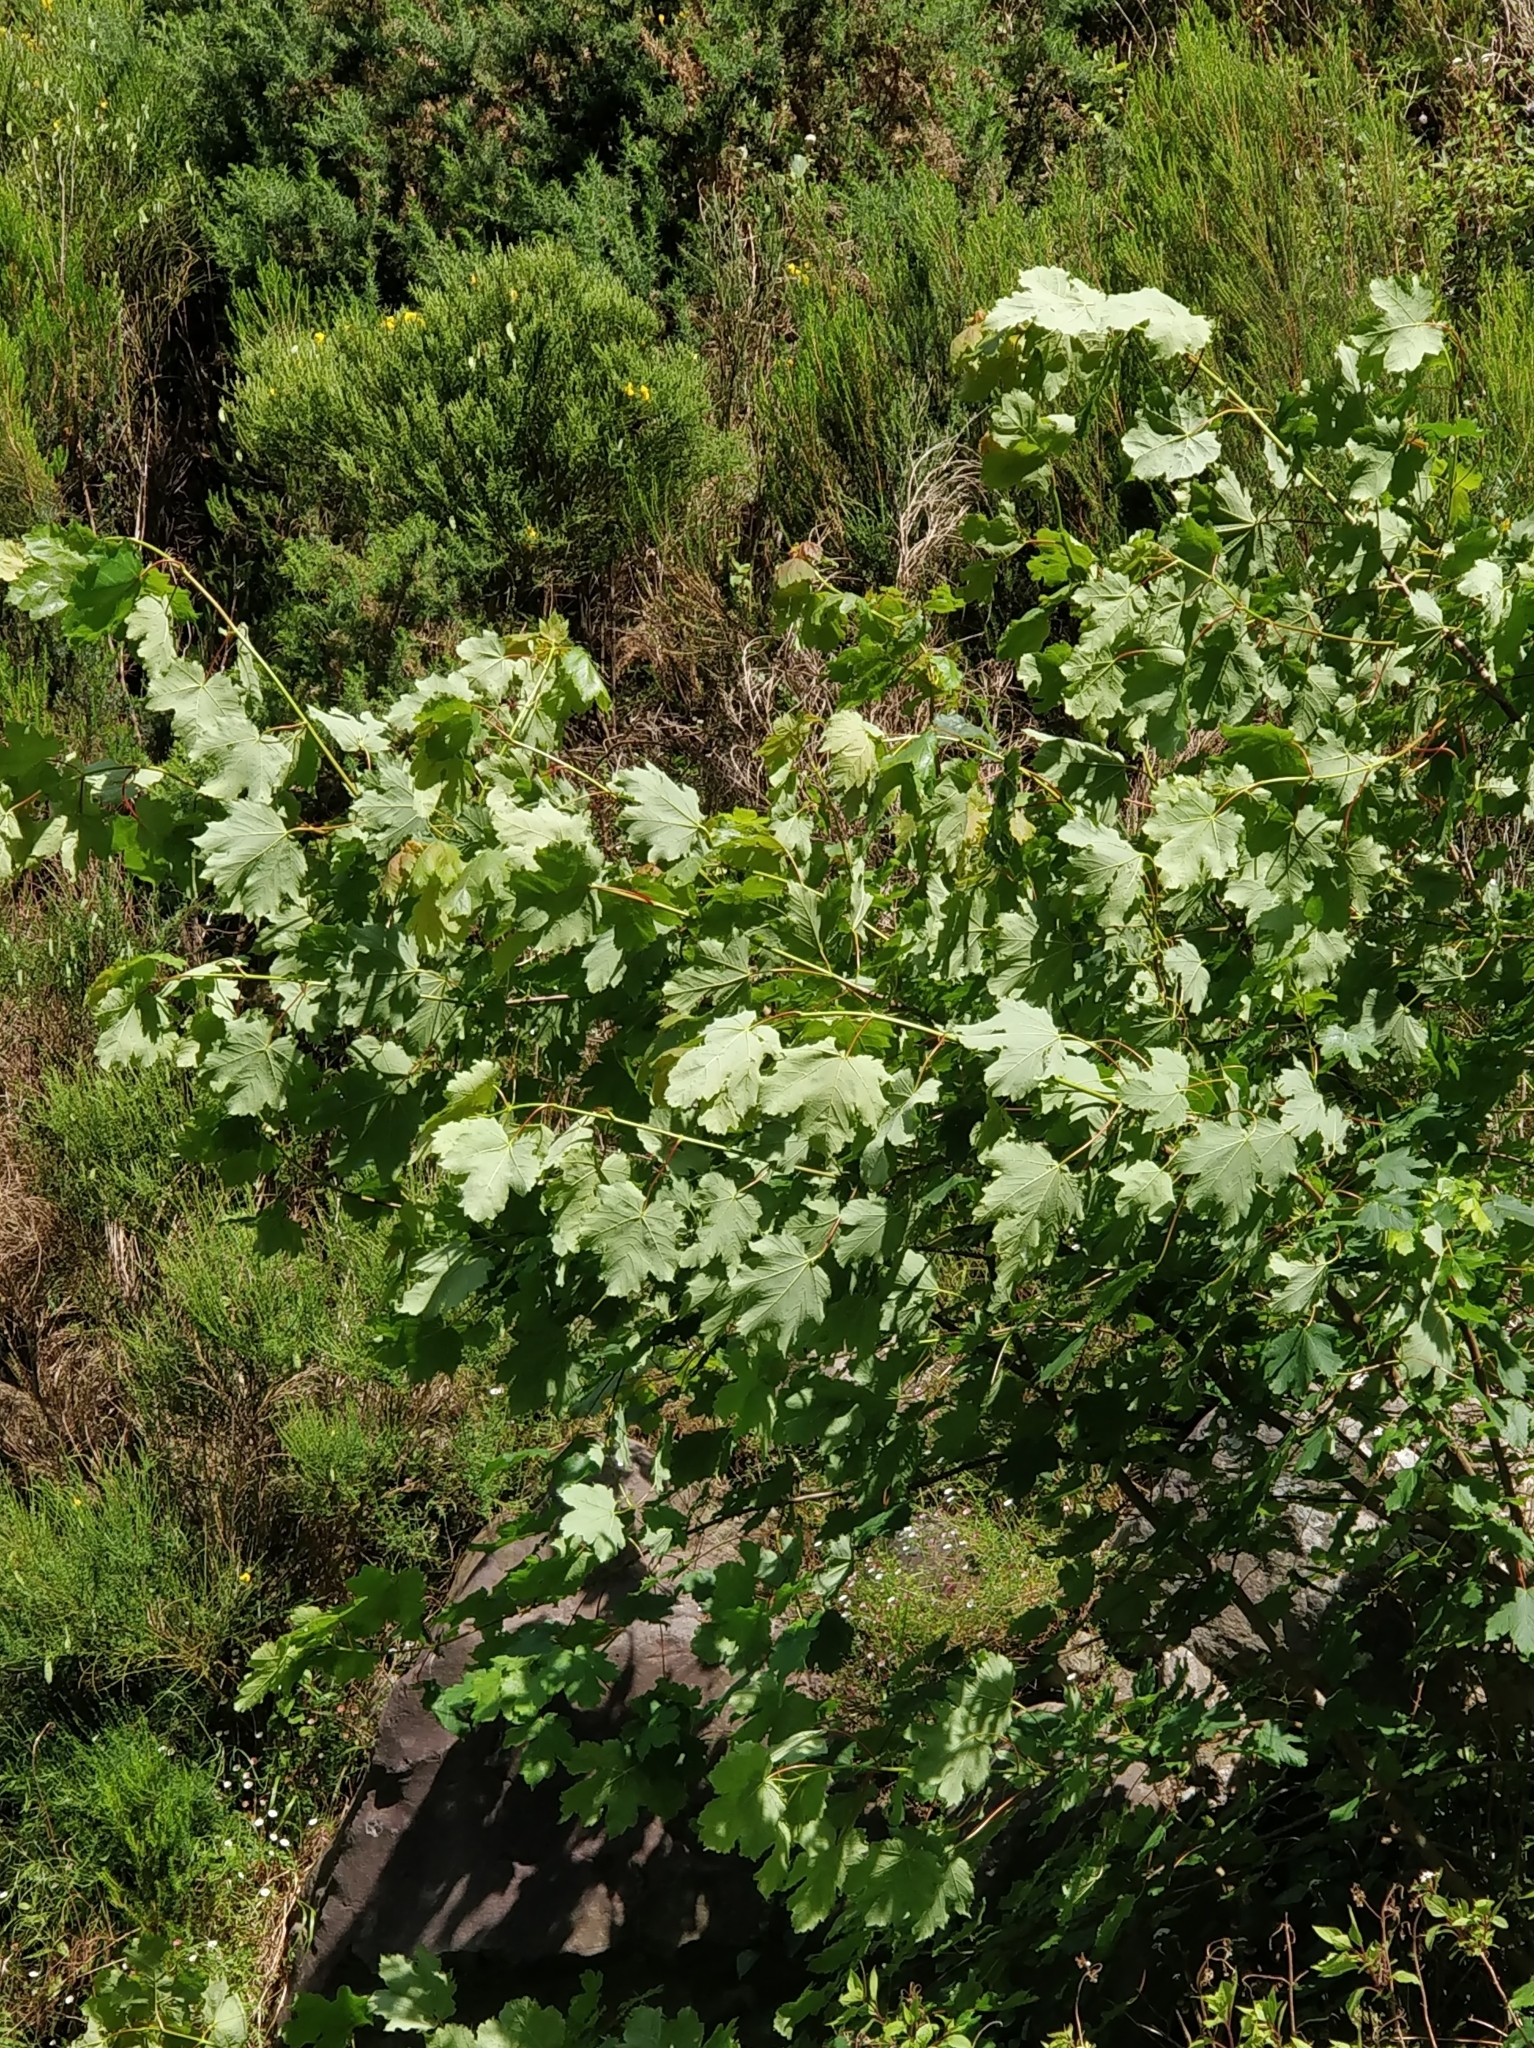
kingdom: Plantae
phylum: Tracheophyta
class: Magnoliopsida
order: Sapindales
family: Sapindaceae
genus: Acer
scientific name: Acer pseudoplatanus
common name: Sycamore
